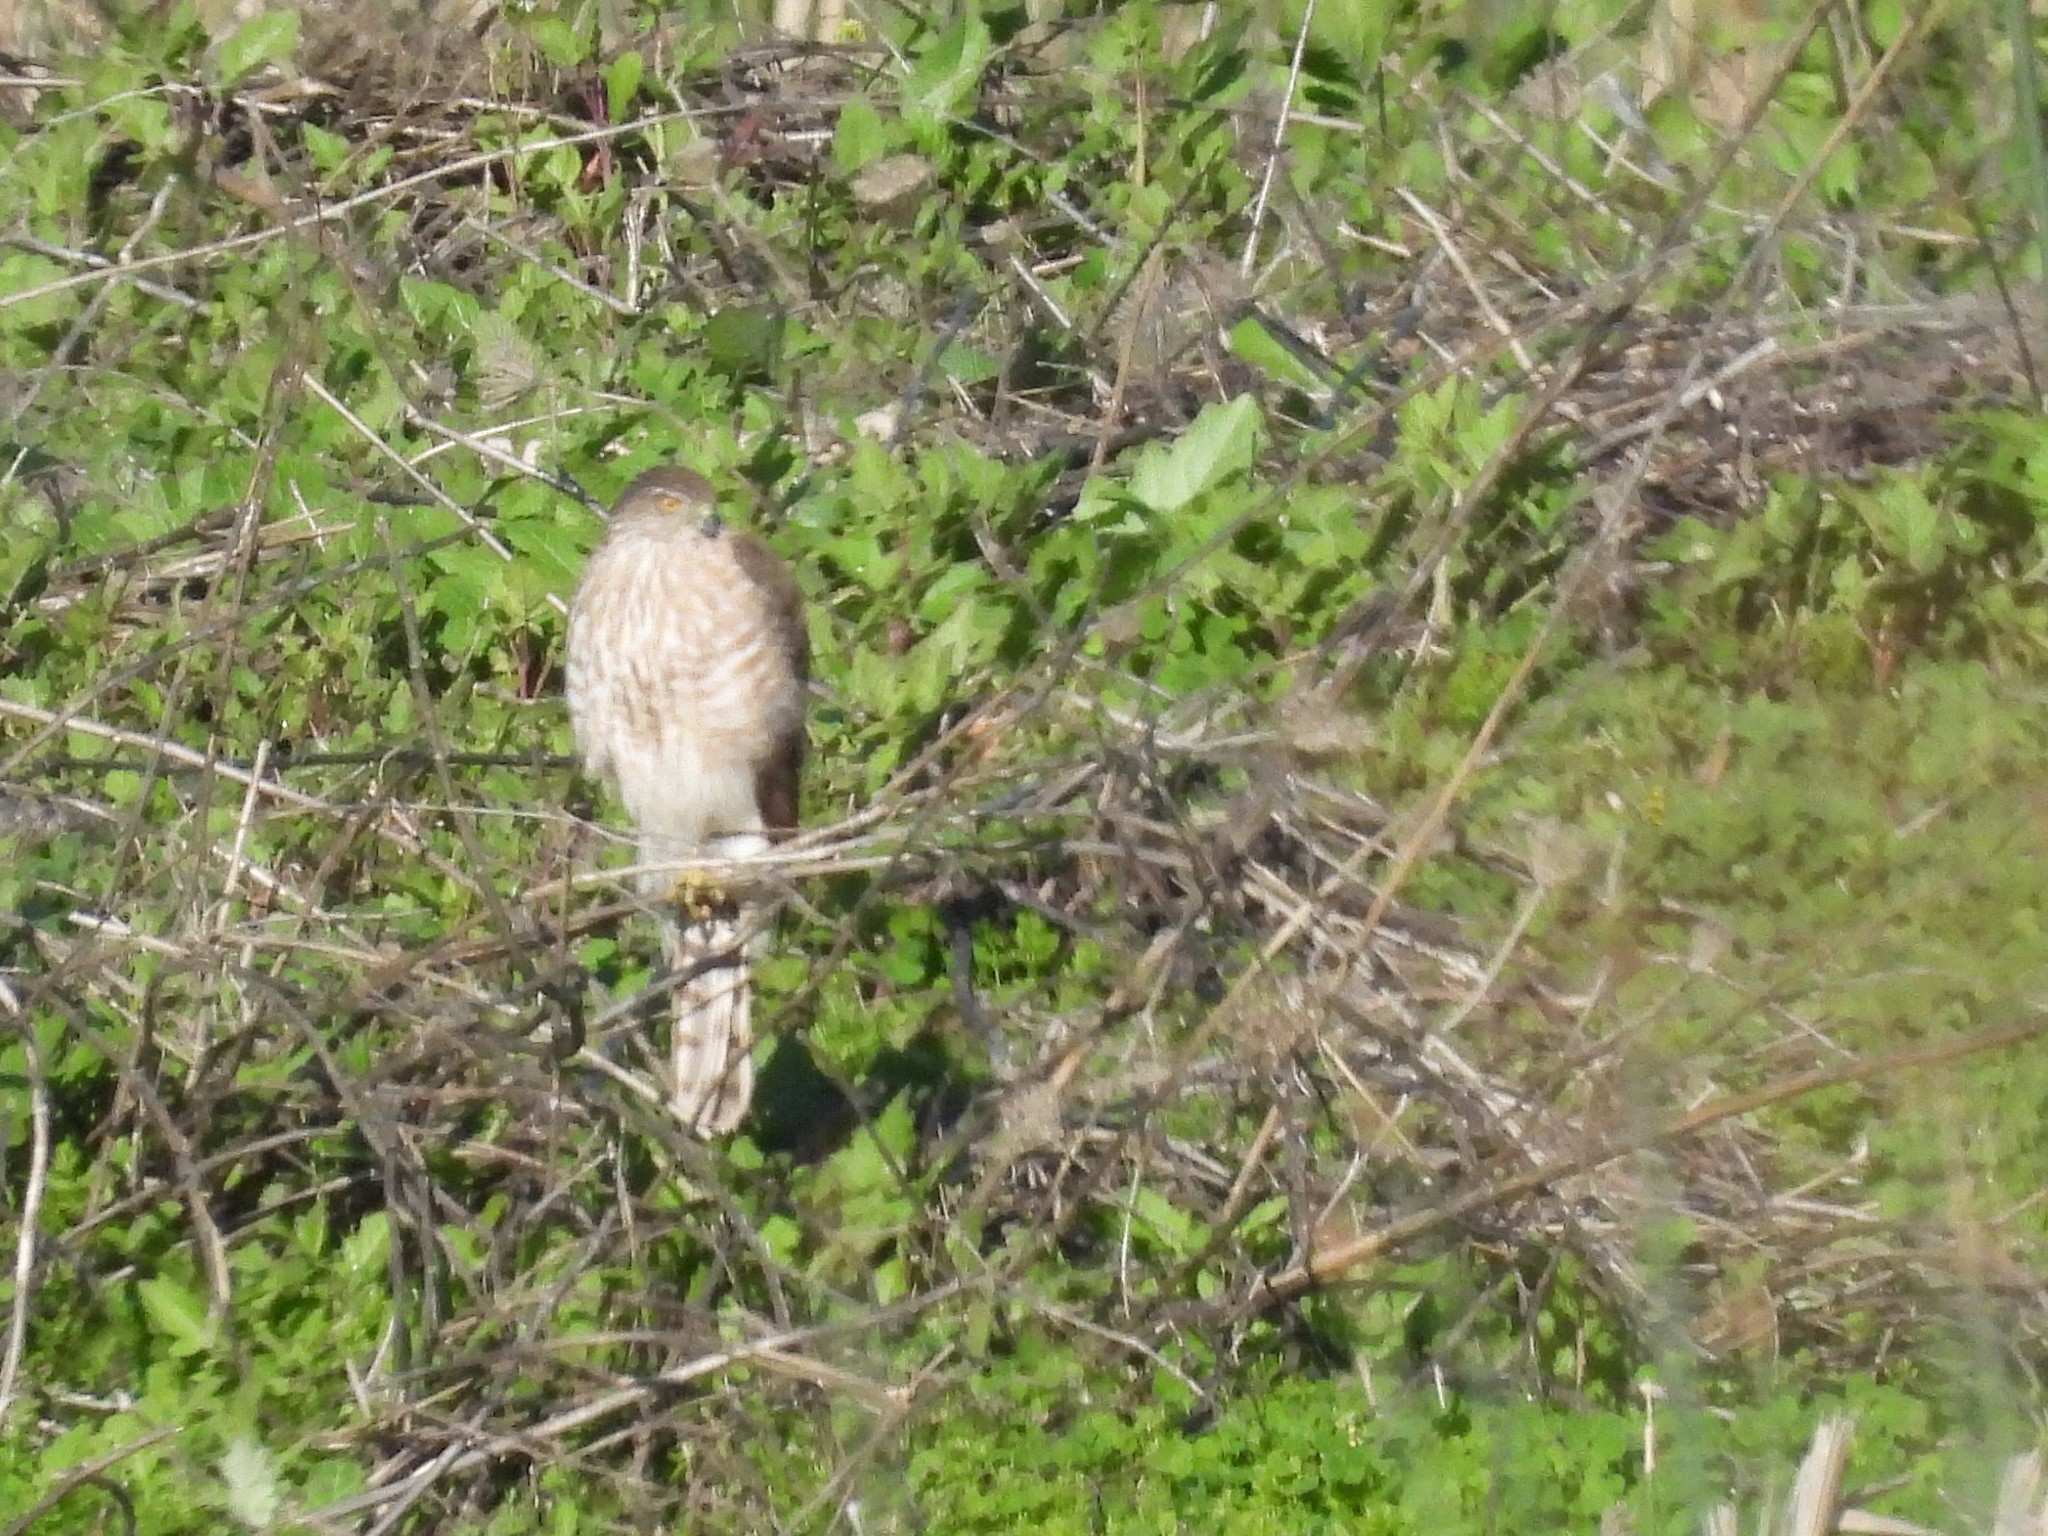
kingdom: Animalia
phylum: Chordata
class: Aves
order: Accipitriformes
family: Accipitridae
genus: Accipiter
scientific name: Accipiter cooperii
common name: Cooper's hawk
